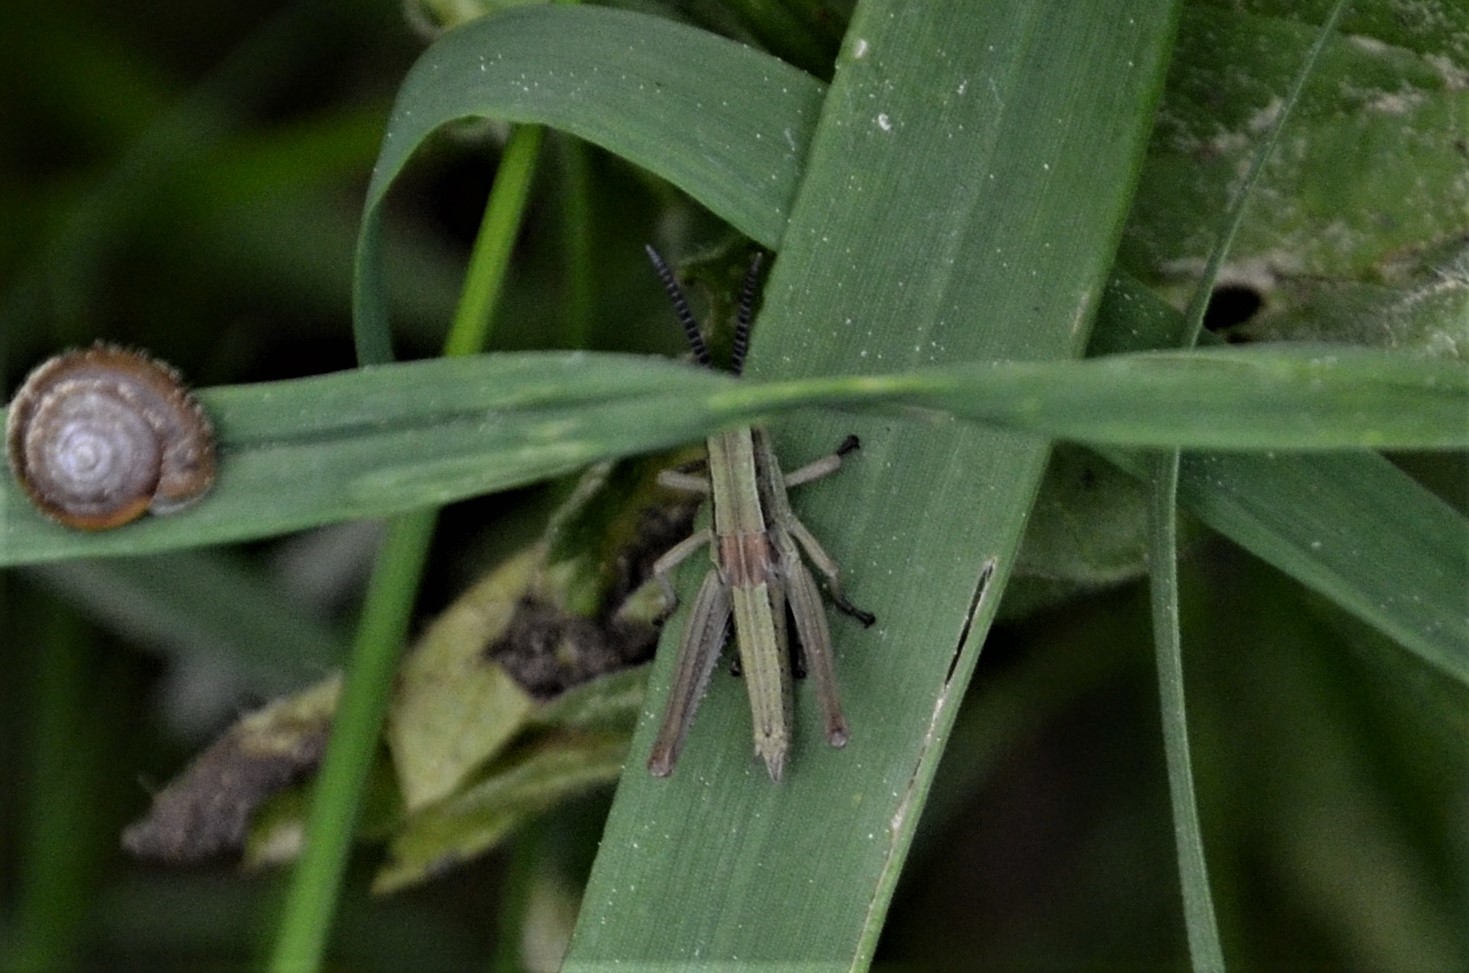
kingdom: Animalia
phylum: Arthropoda
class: Insecta
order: Orthoptera
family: Acrididae
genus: Euthystira
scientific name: Euthystira brachyptera
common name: Small gold grasshopper
